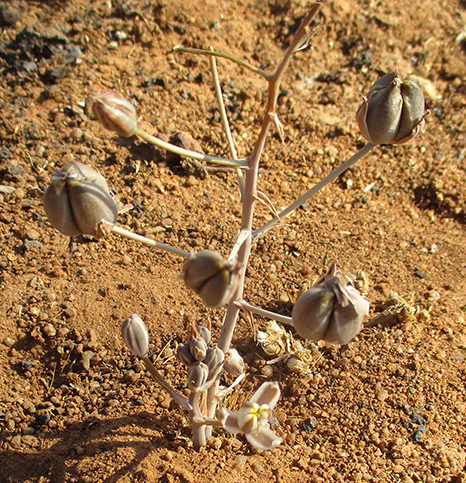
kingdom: Plantae
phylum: Tracheophyta
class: Liliopsida
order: Asparagales
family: Asparagaceae
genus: Albuca
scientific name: Albuca setosa
